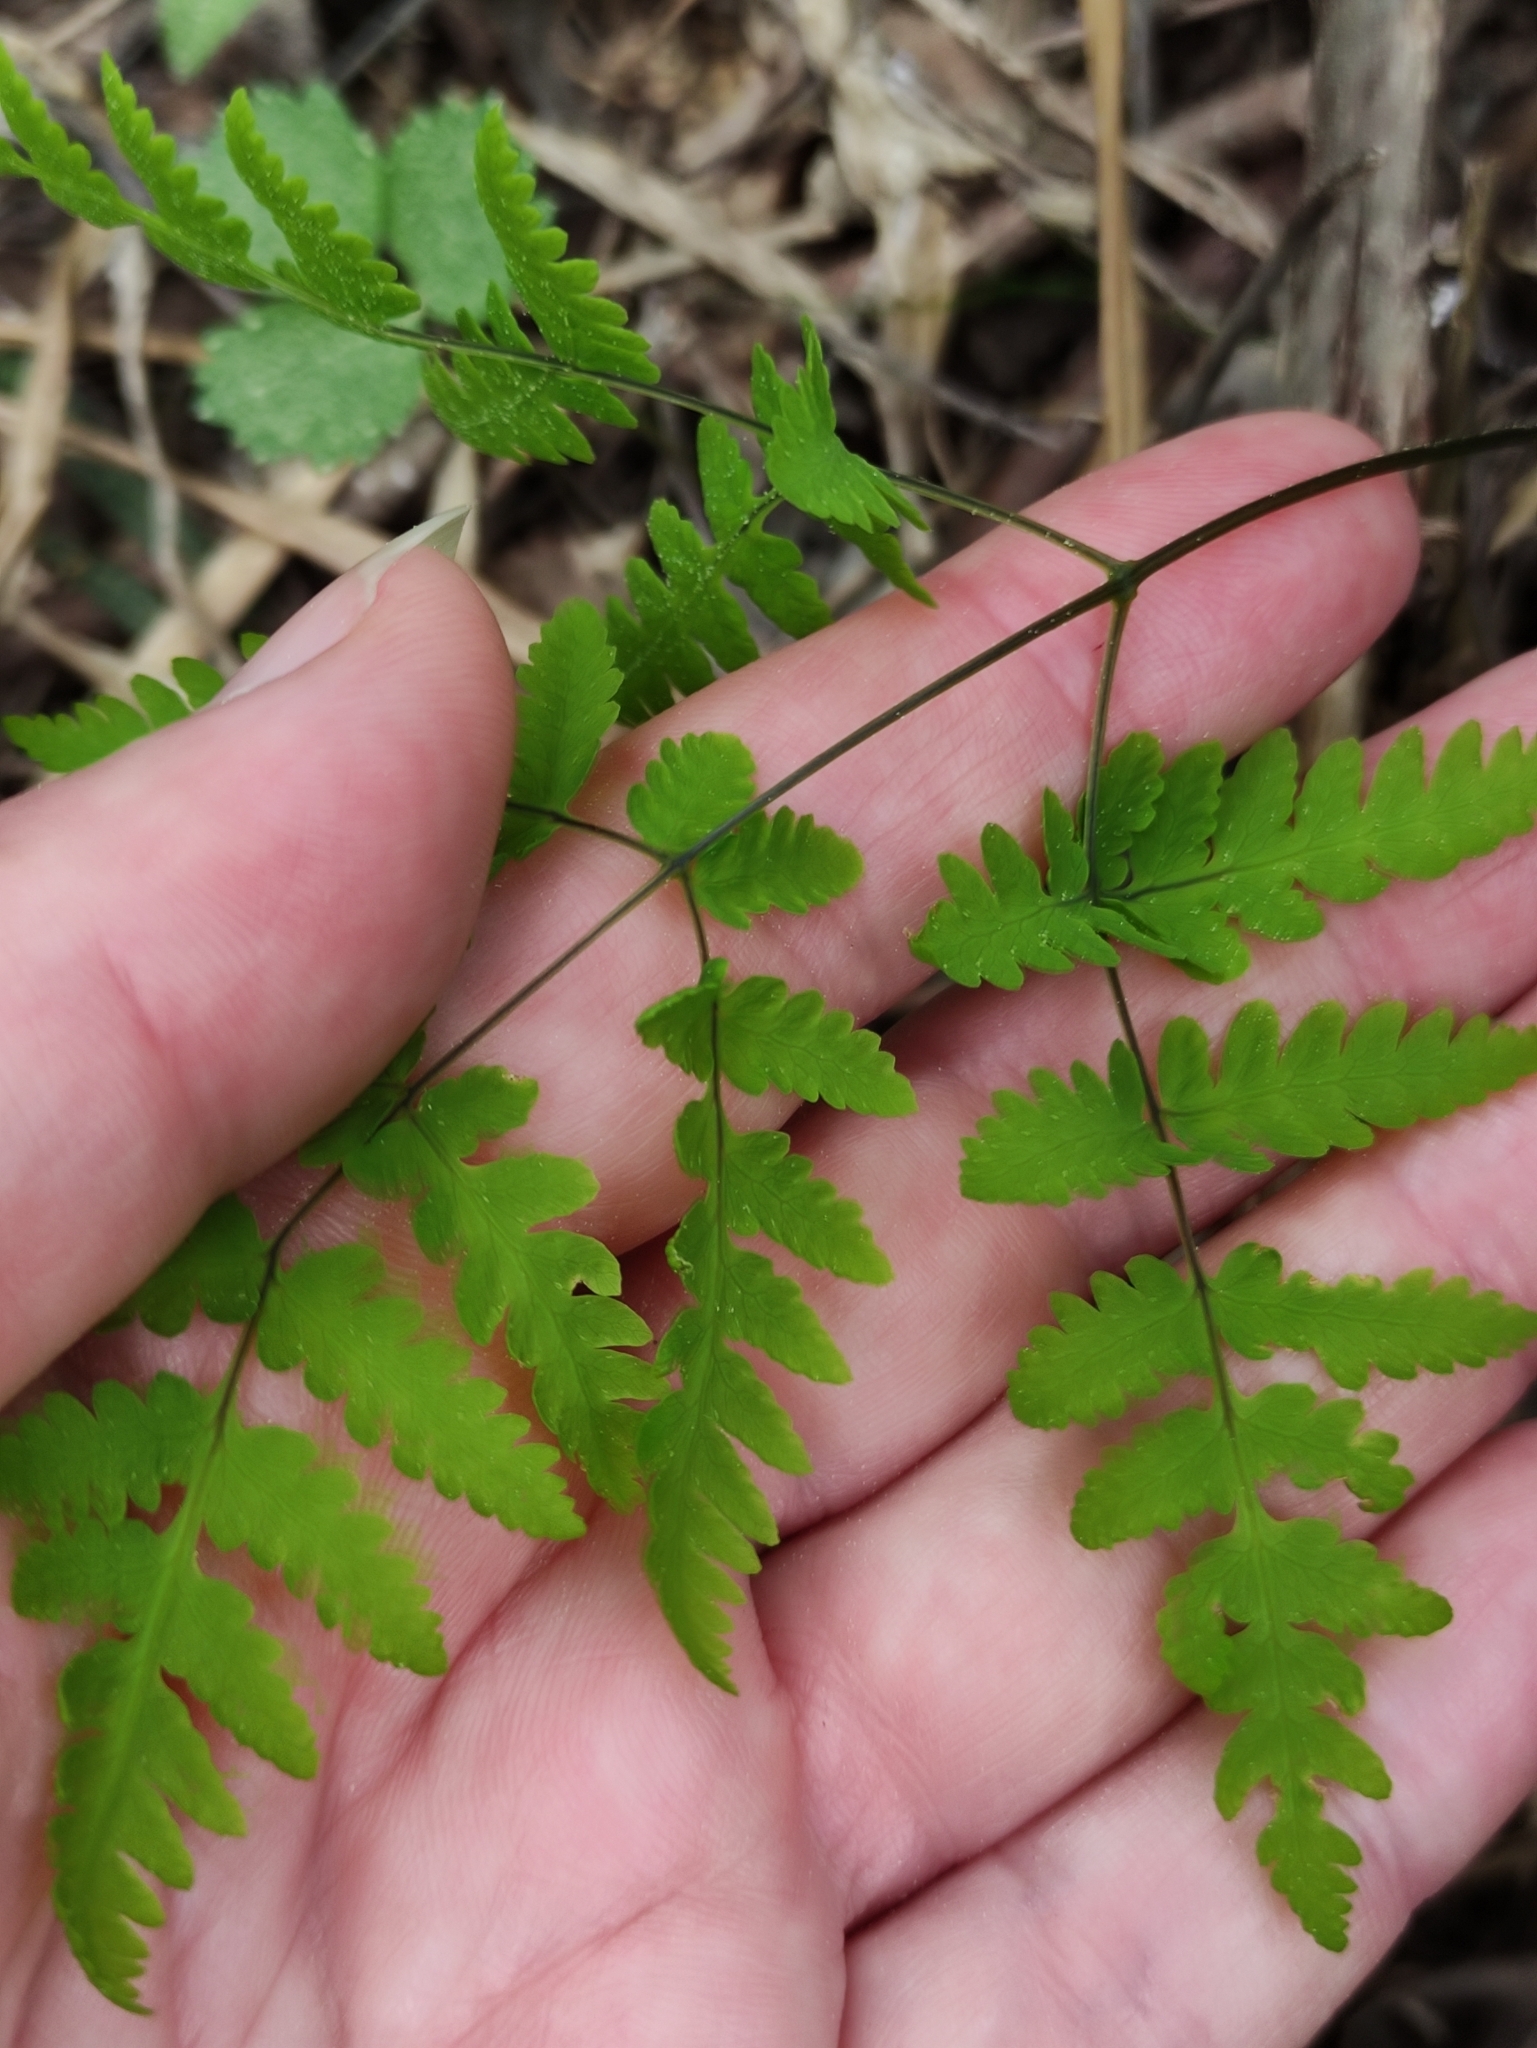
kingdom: Plantae
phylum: Tracheophyta
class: Polypodiopsida
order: Polypodiales
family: Cystopteridaceae
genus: Gymnocarpium
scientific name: Gymnocarpium dryopteris
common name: Oak fern
